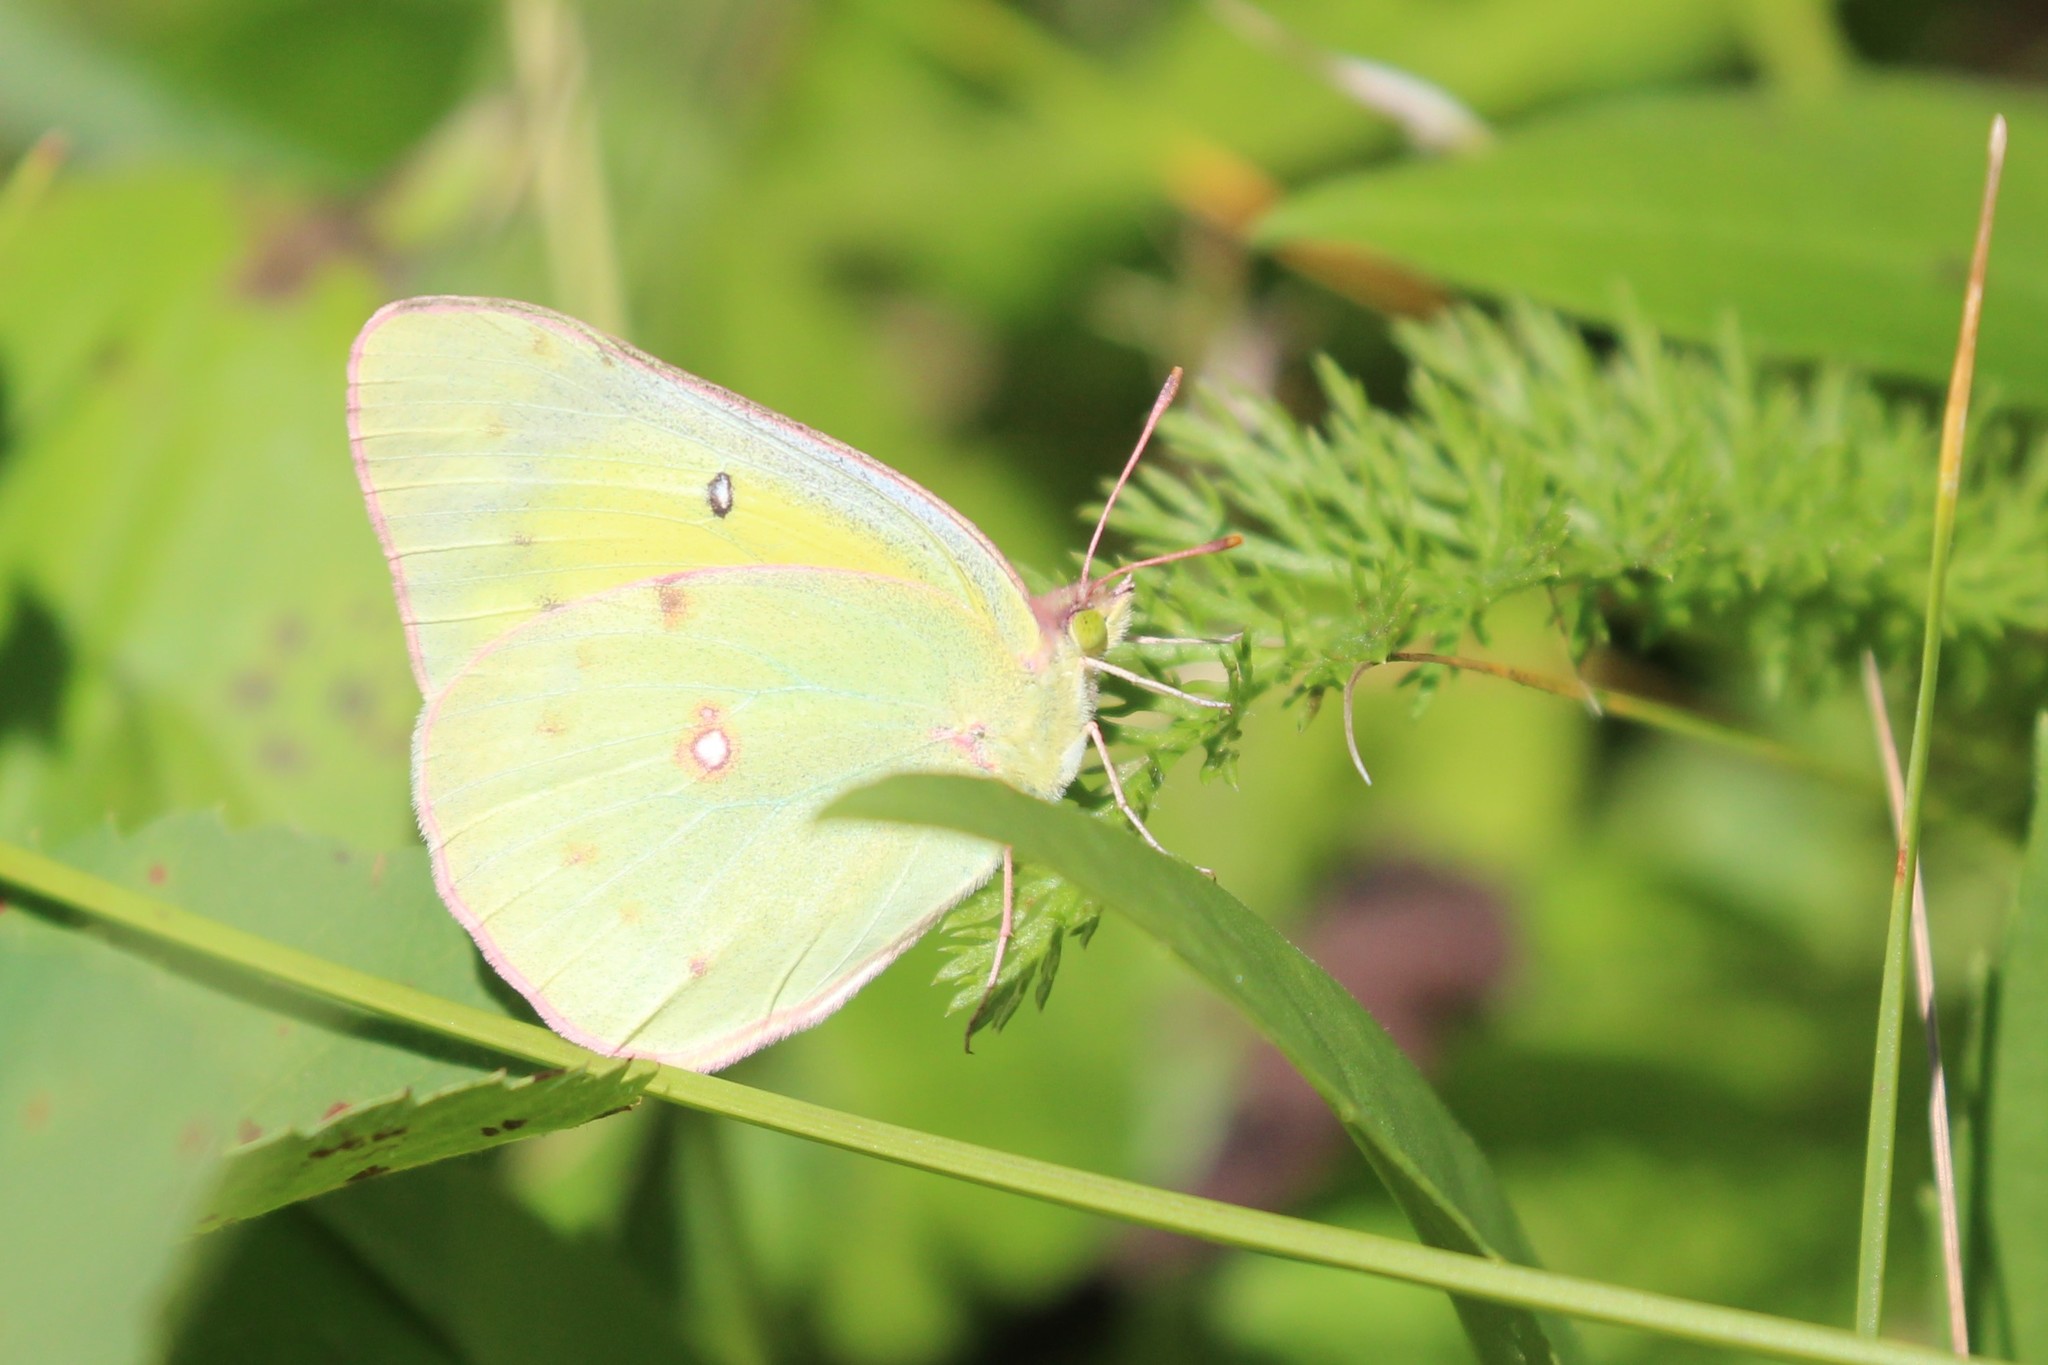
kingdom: Animalia
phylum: Arthropoda
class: Insecta
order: Lepidoptera
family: Pieridae
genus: Colias
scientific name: Colias eurytheme
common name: Alfalfa butterfly
